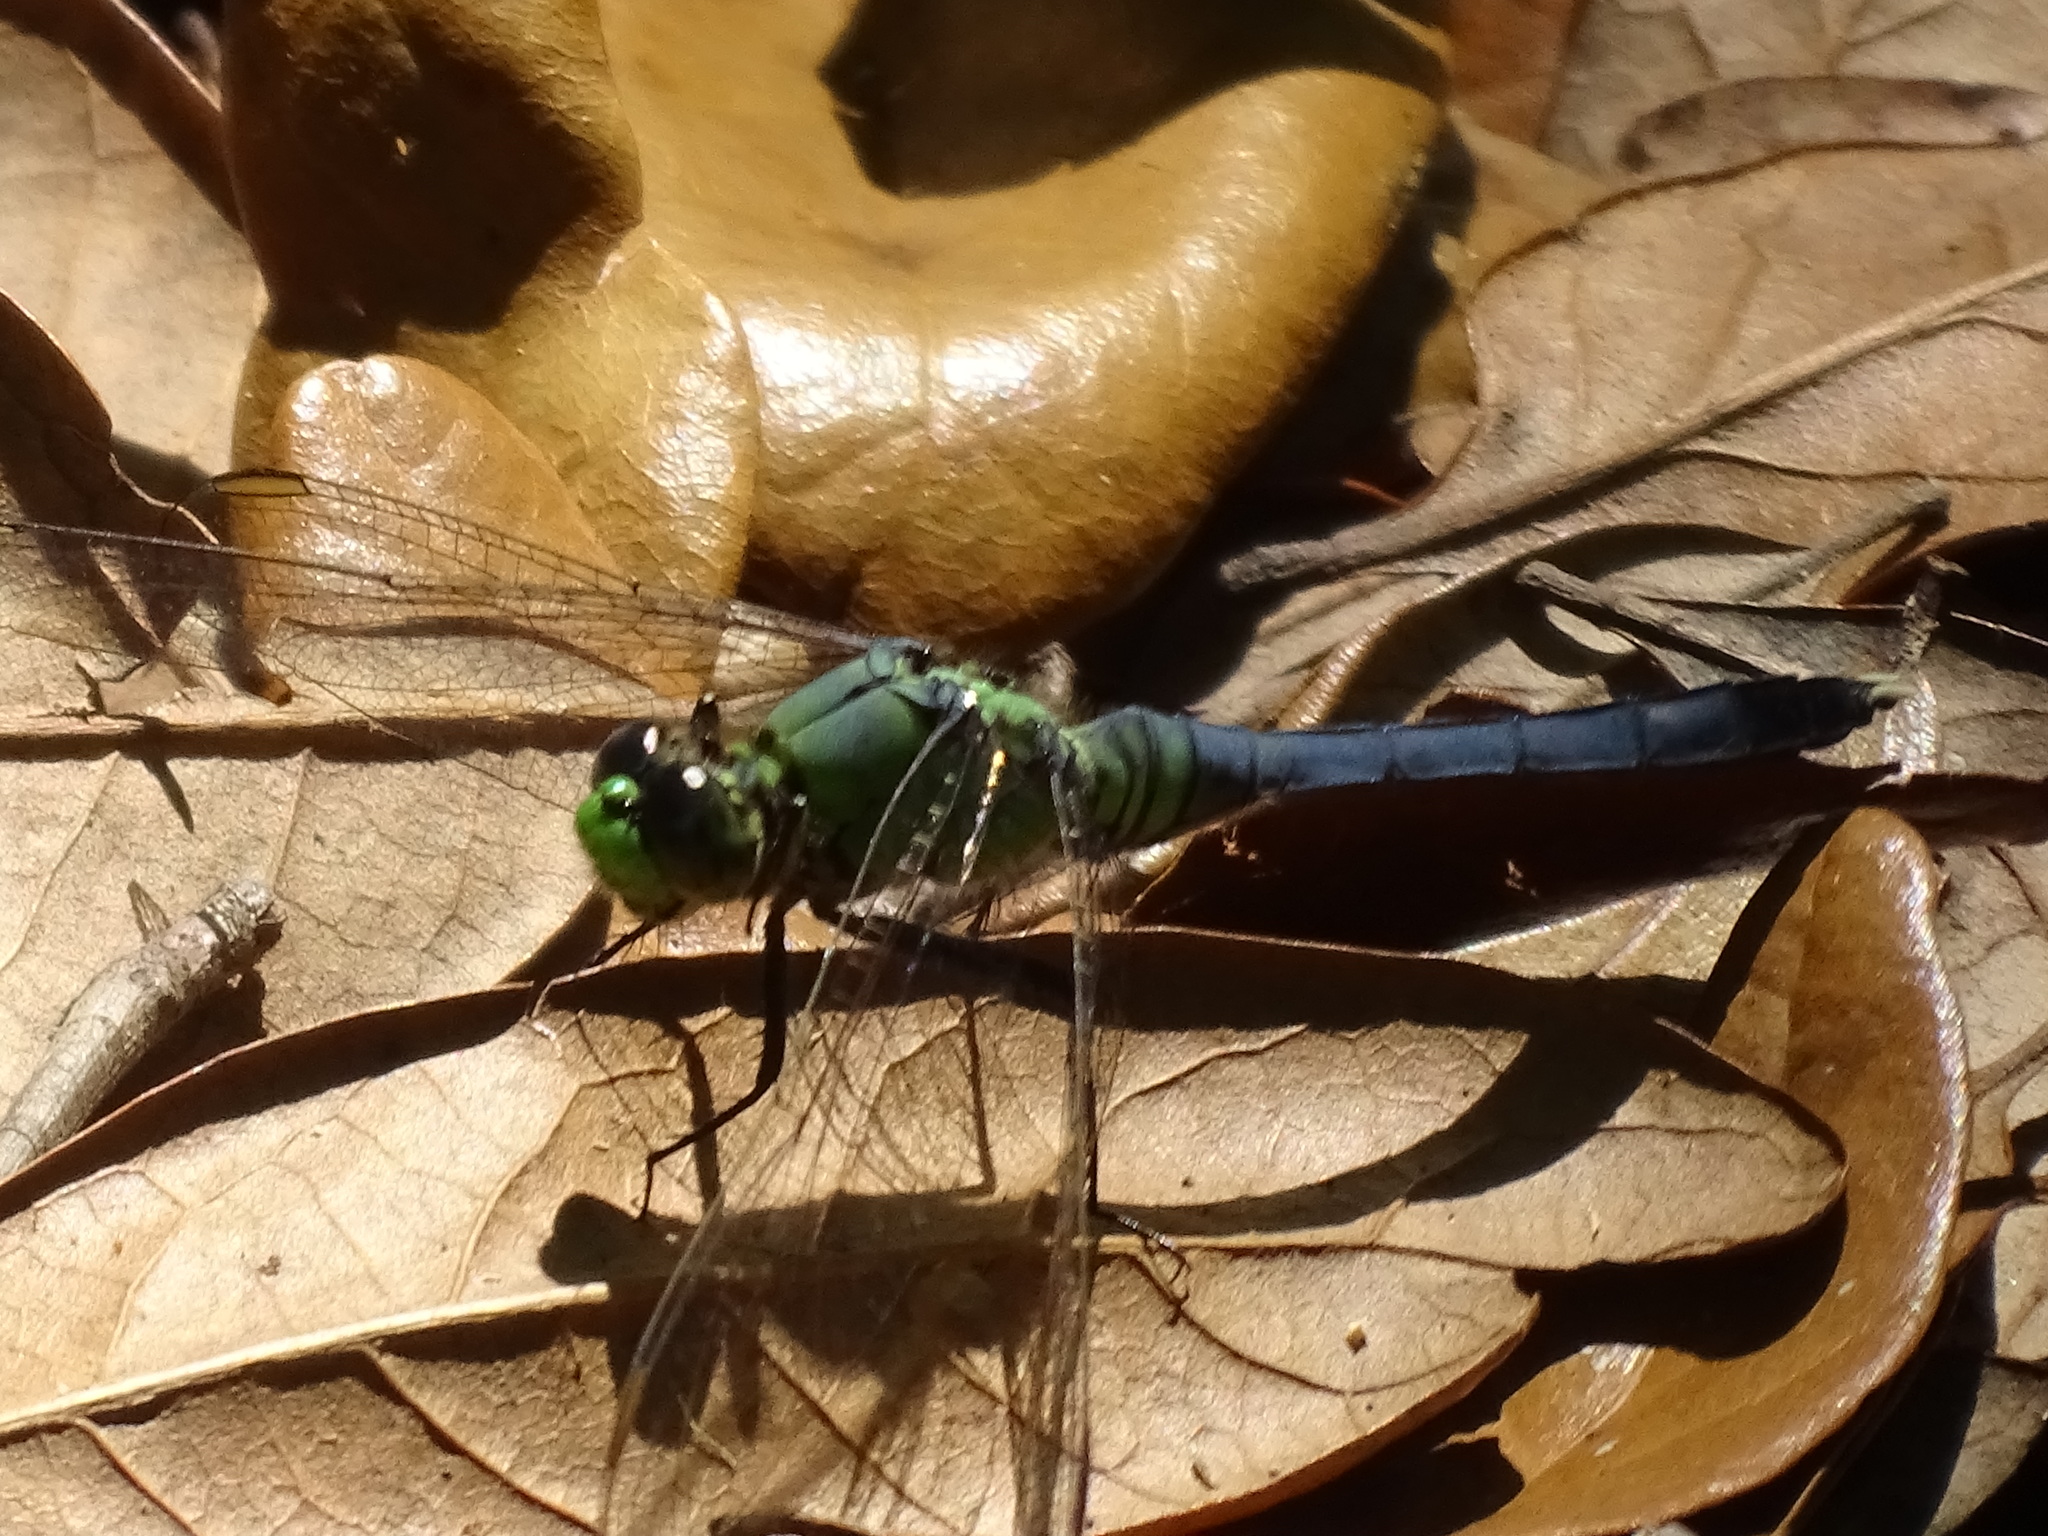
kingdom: Animalia
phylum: Arthropoda
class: Insecta
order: Odonata
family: Libellulidae
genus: Erythemis
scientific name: Erythemis simplicicollis
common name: Eastern pondhawk
